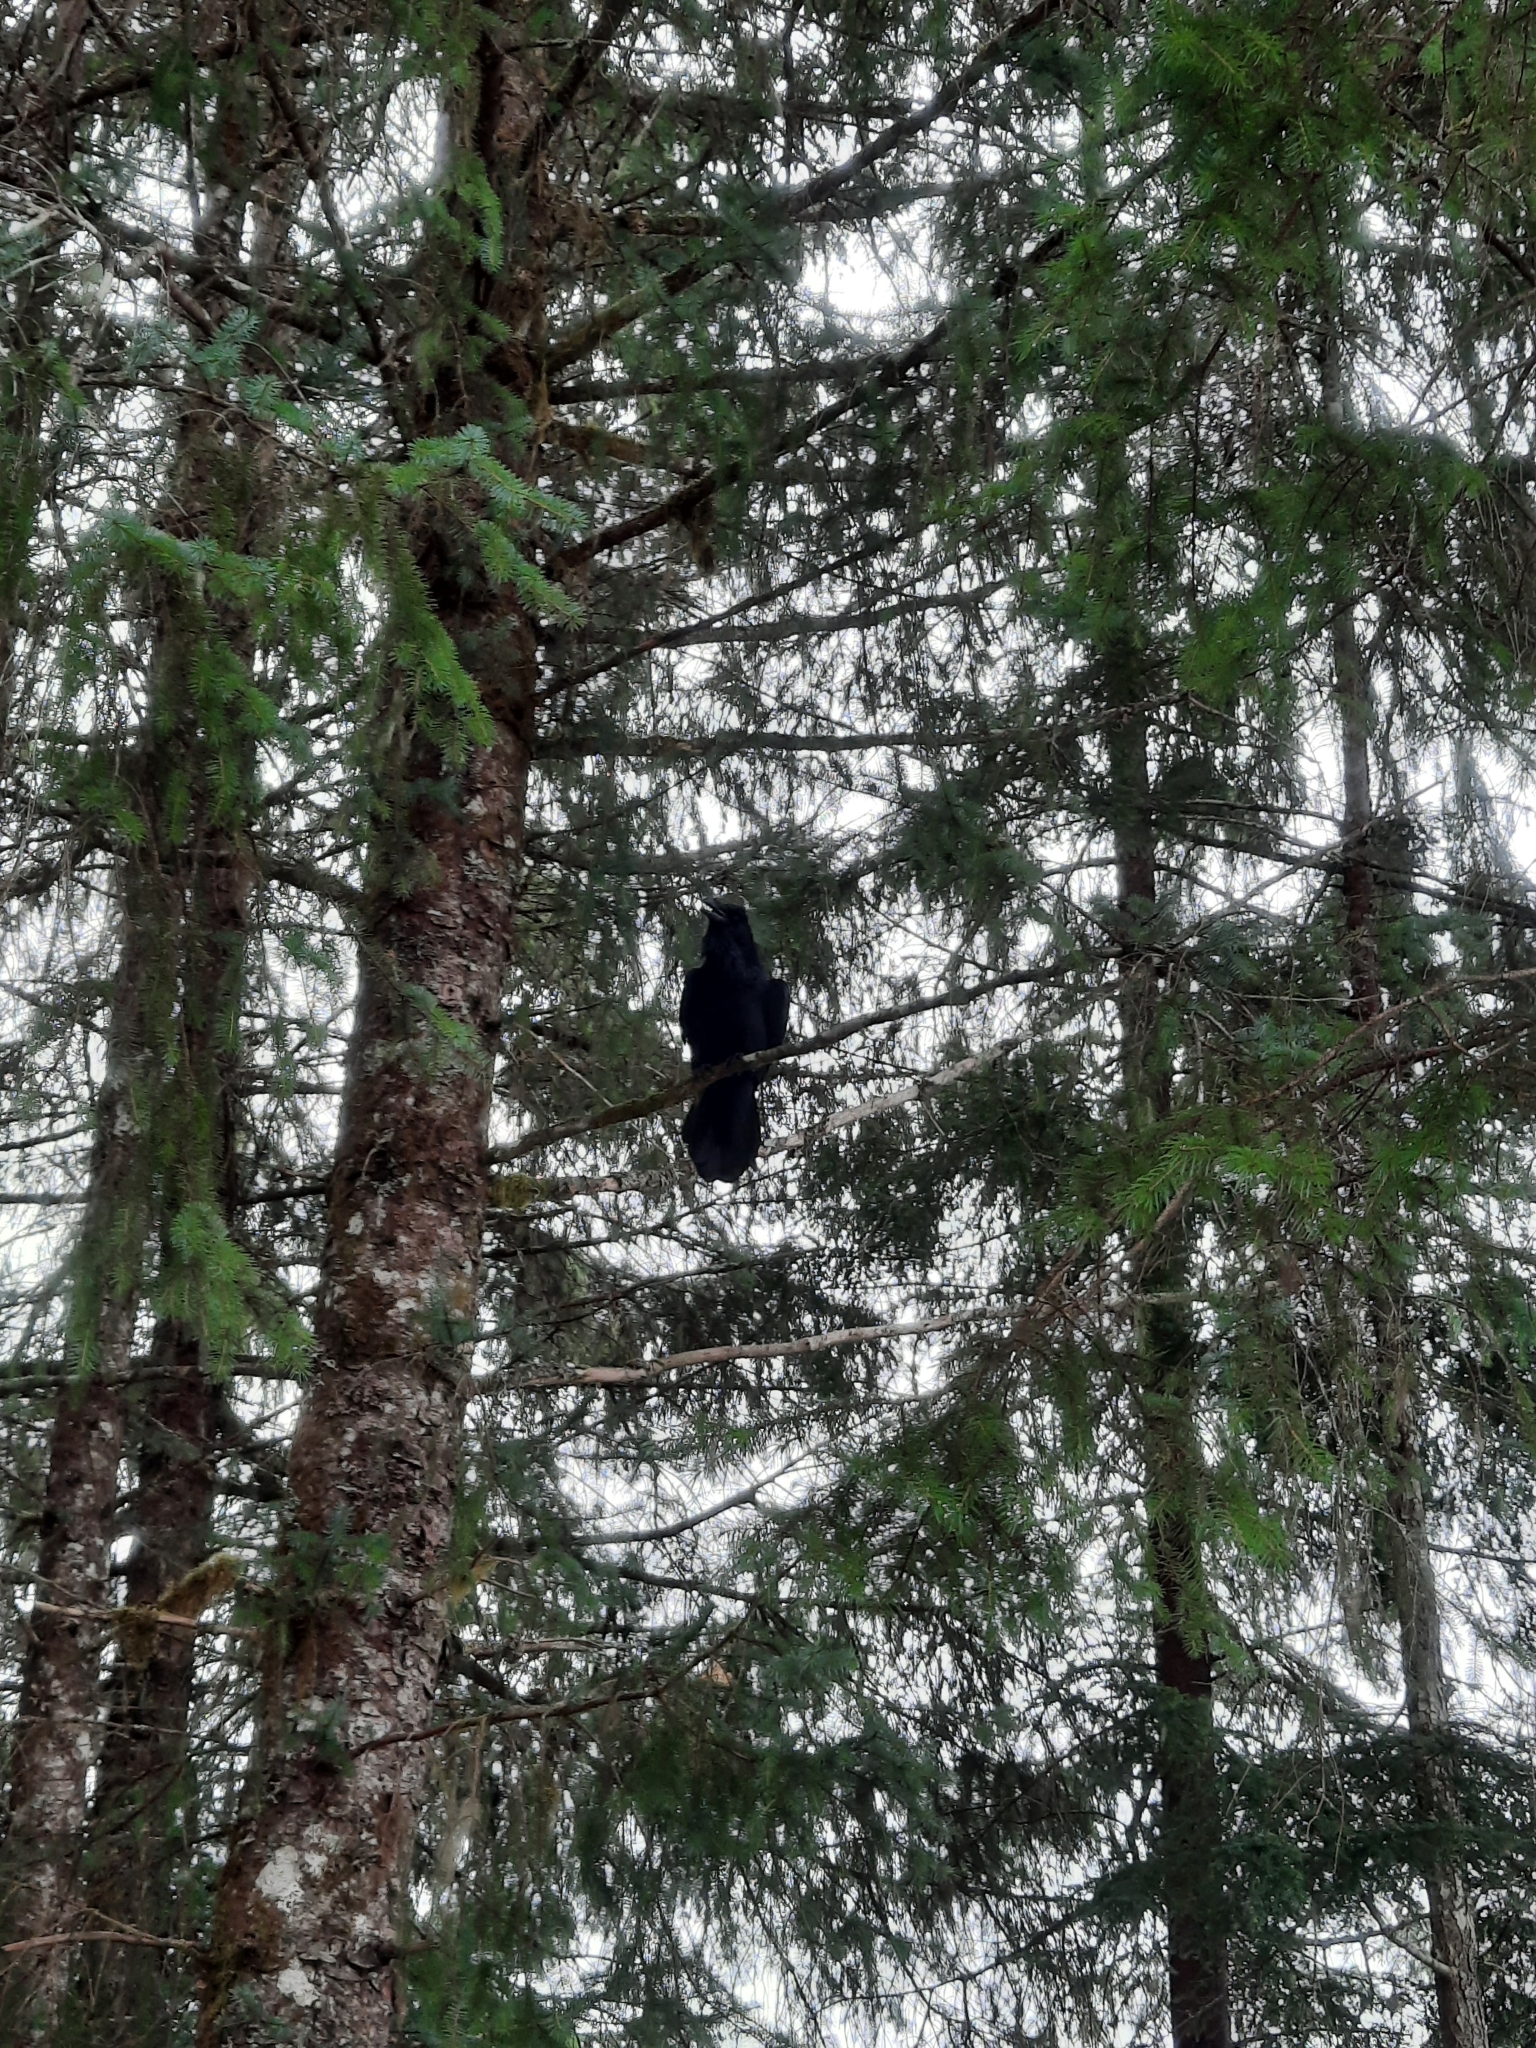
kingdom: Animalia
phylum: Chordata
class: Aves
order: Passeriformes
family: Corvidae
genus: Corvus
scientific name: Corvus corax
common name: Common raven
